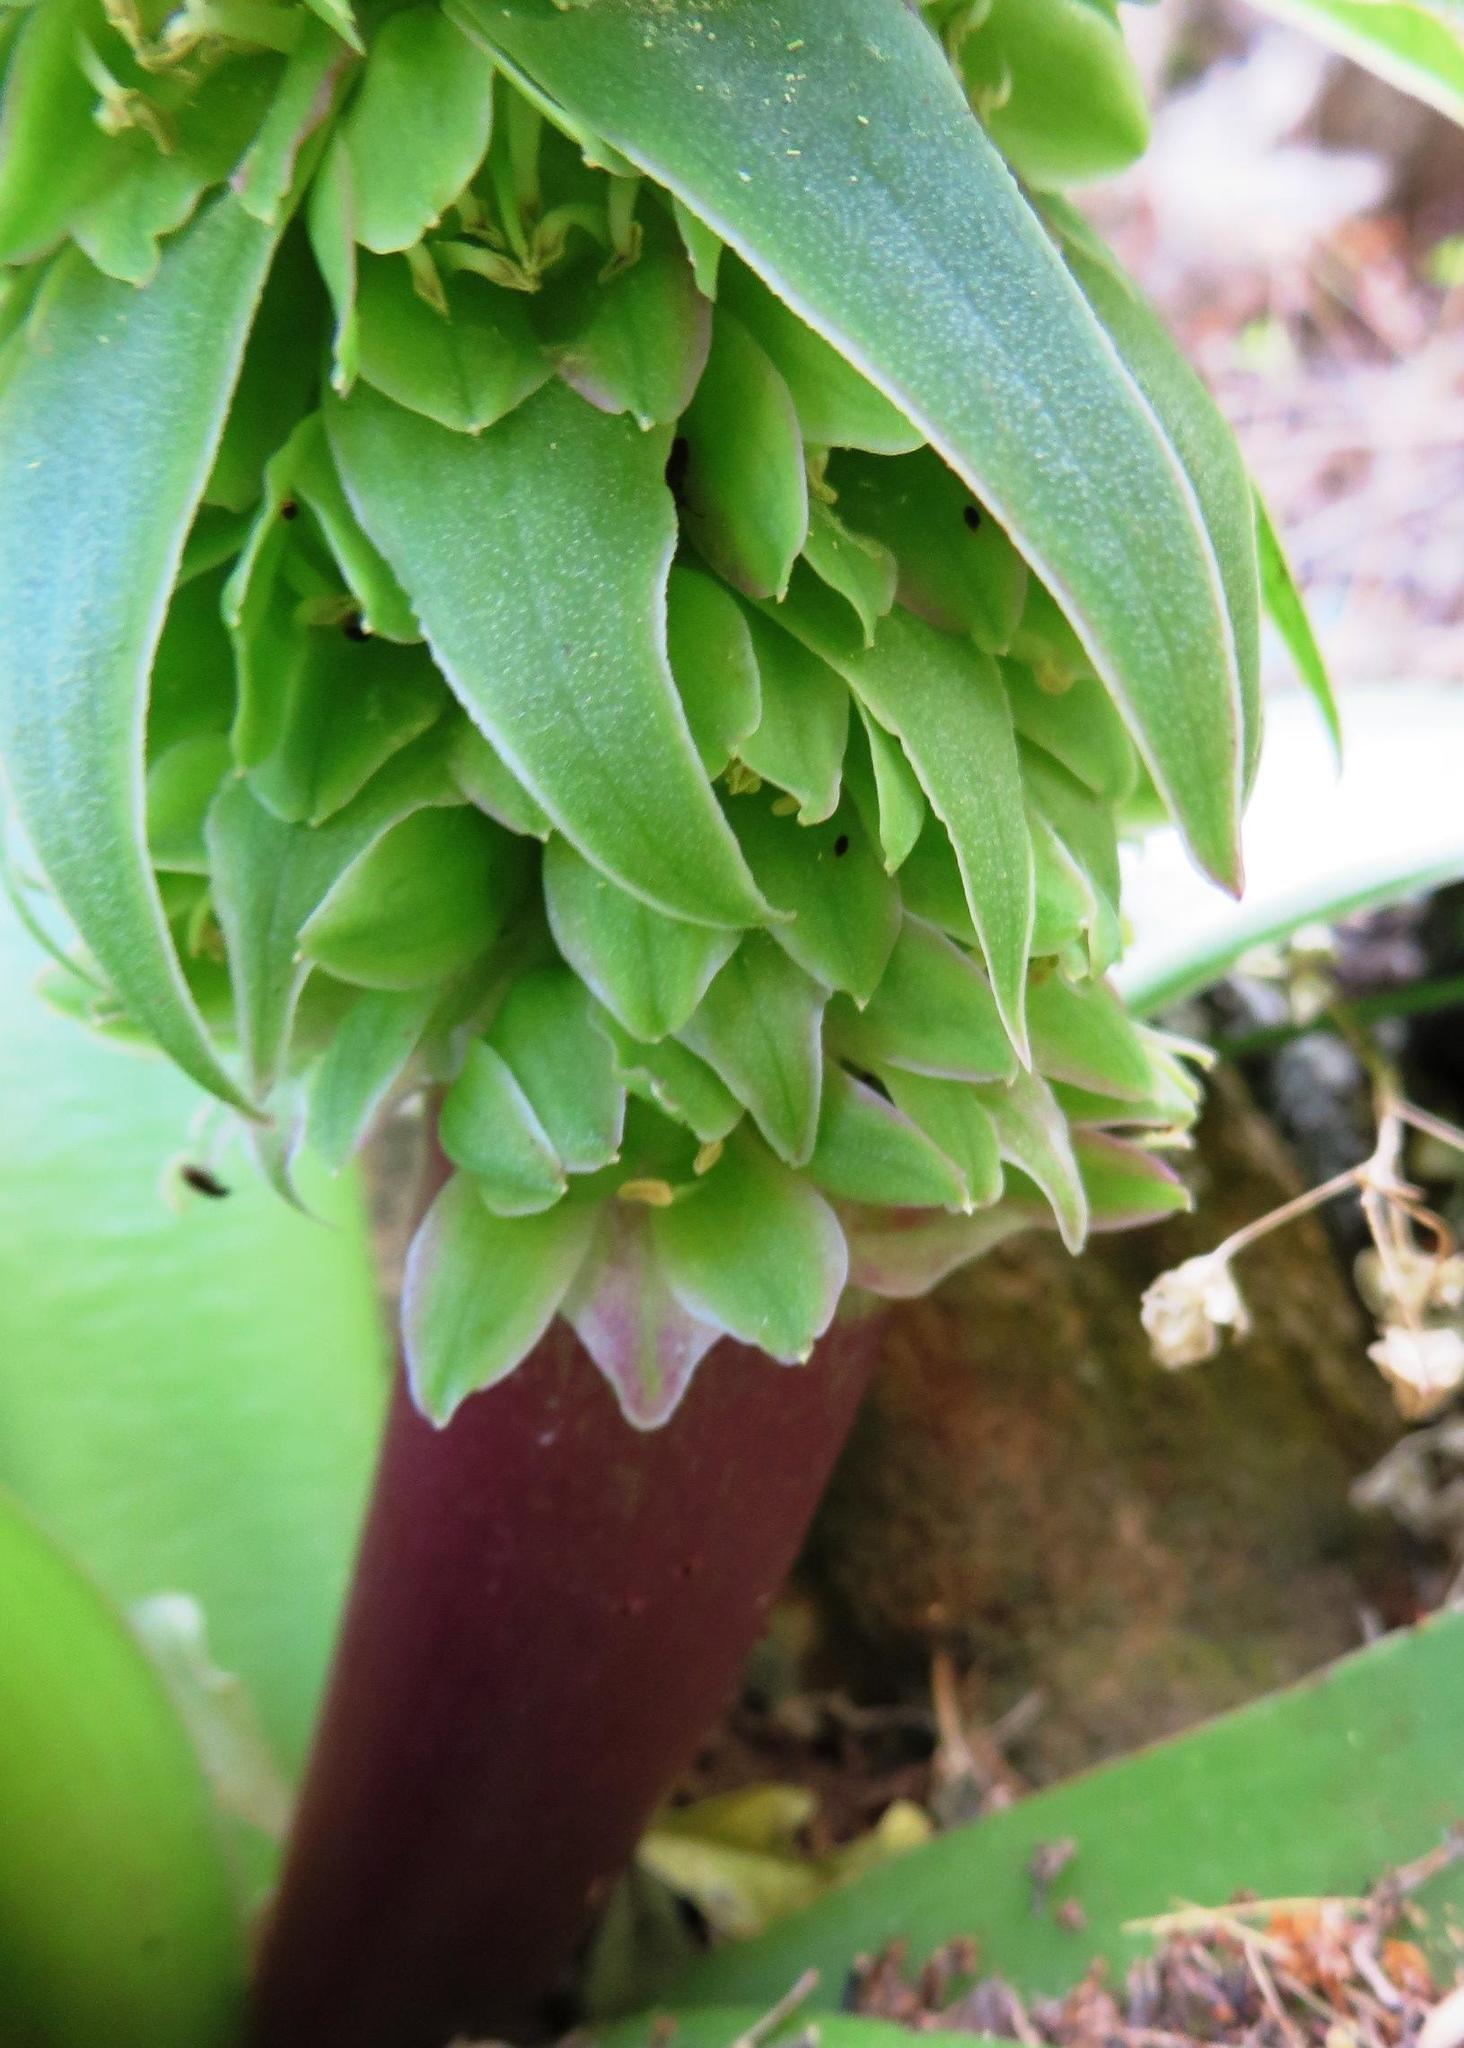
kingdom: Plantae
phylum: Tracheophyta
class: Liliopsida
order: Asparagales
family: Asparagaceae
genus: Eucomis
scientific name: Eucomis regia
